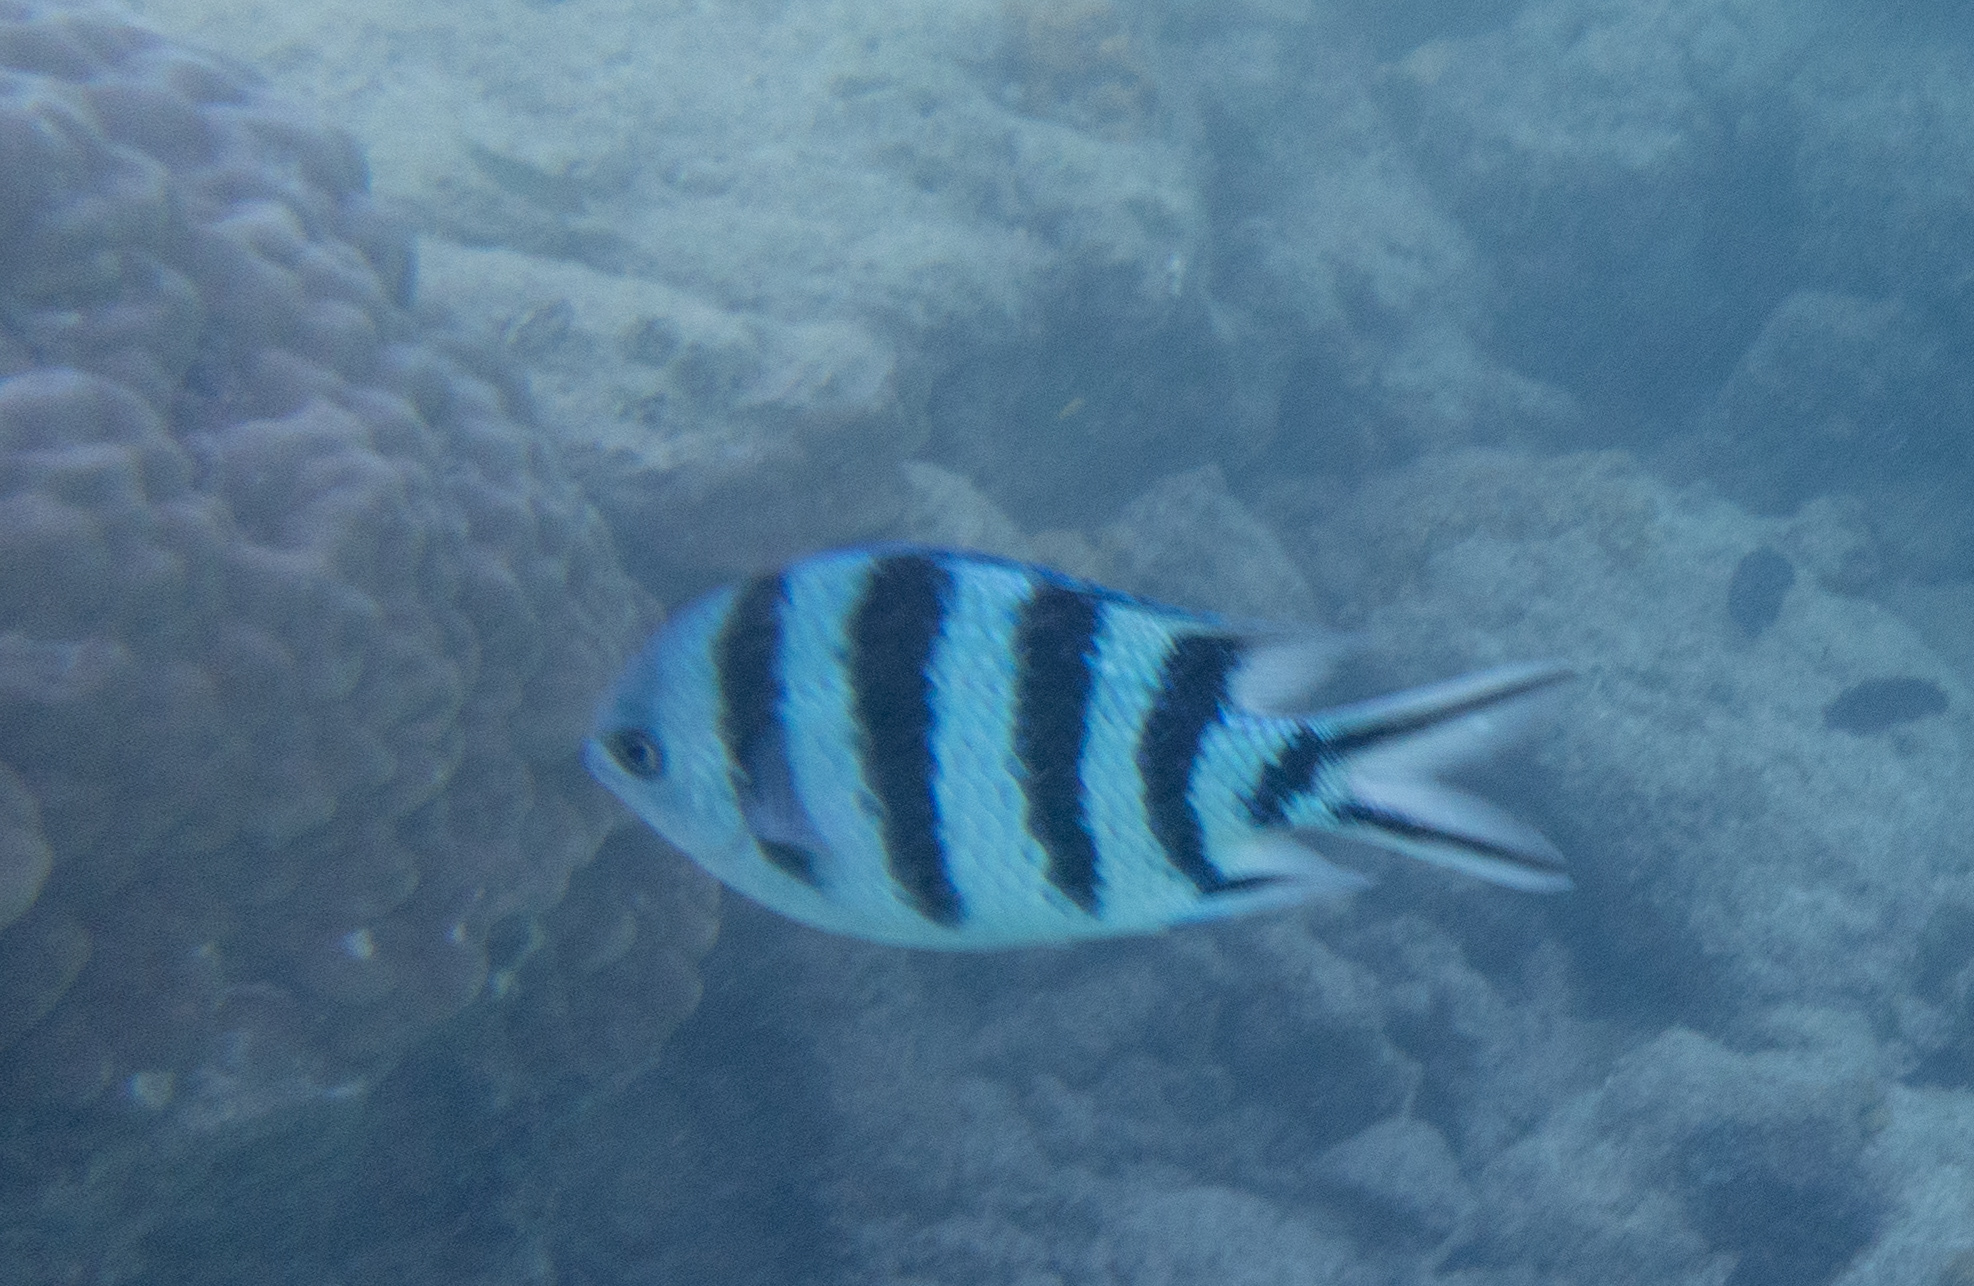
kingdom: Animalia
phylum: Chordata
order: Perciformes
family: Pomacentridae
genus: Abudefduf
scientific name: Abudefduf sexfasciatus
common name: Scissortail sergeant
